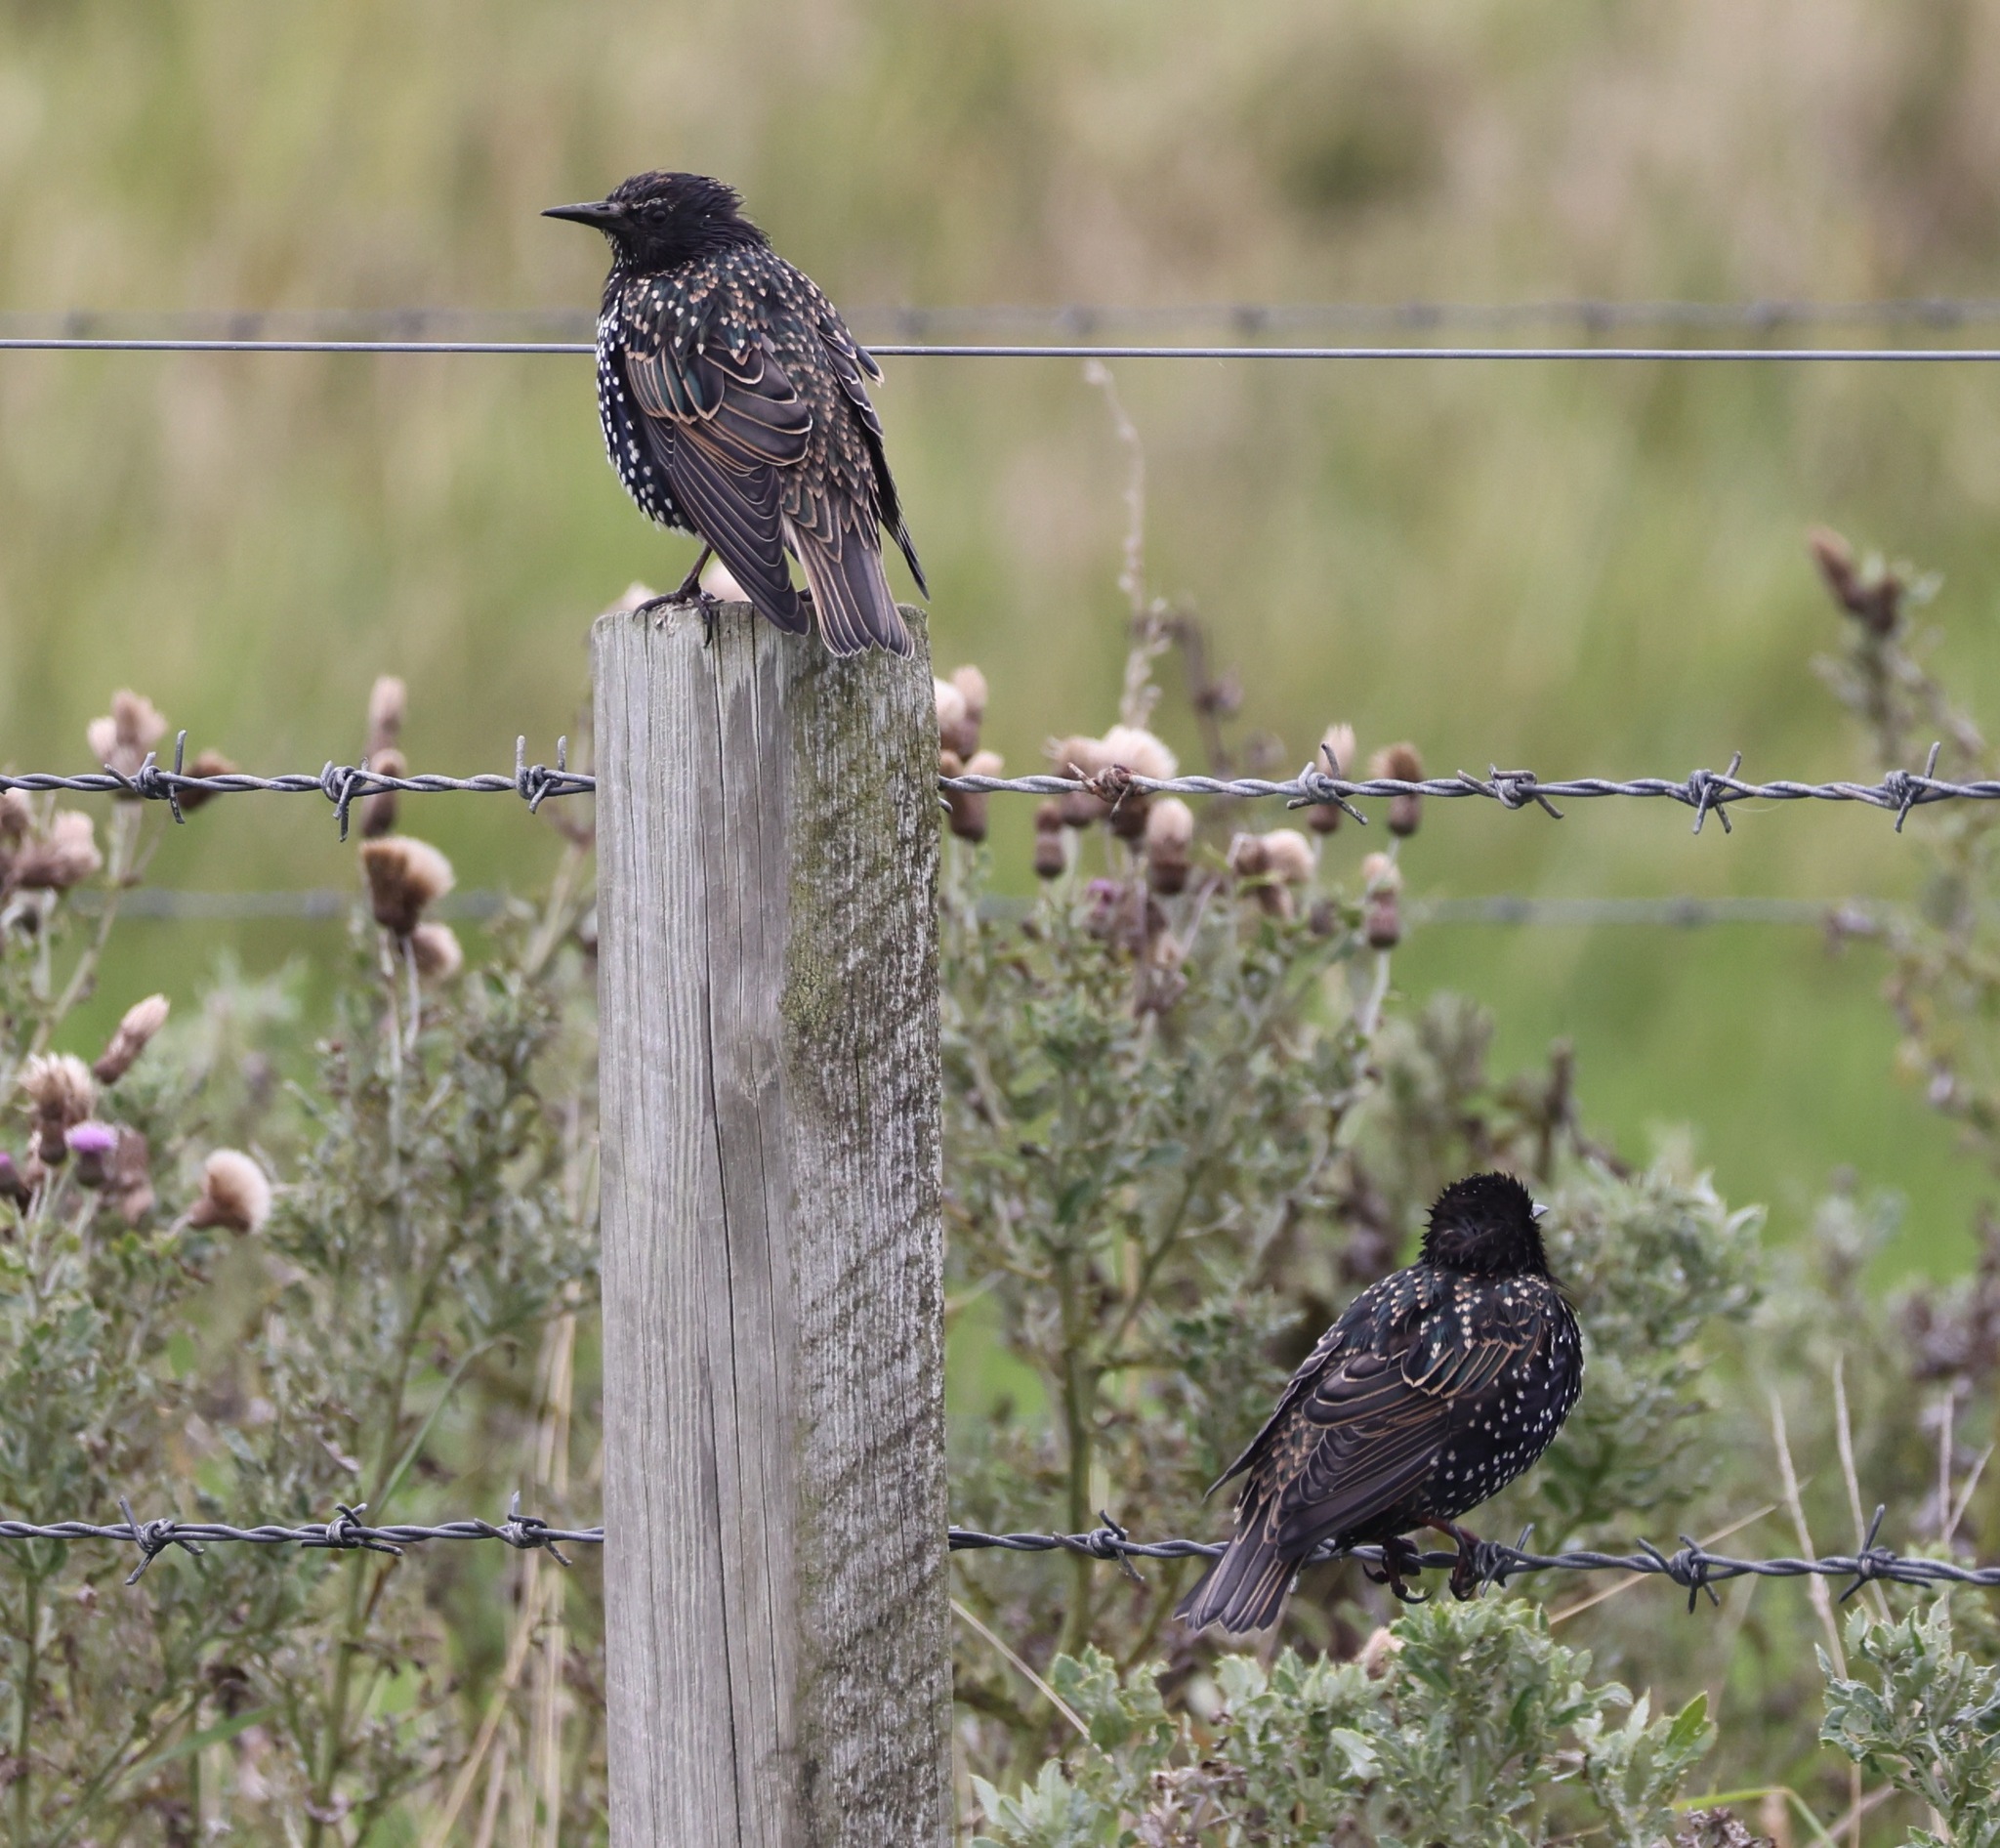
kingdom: Animalia
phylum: Chordata
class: Aves
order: Passeriformes
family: Sturnidae
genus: Sturnus
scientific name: Sturnus vulgaris
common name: Common starling
